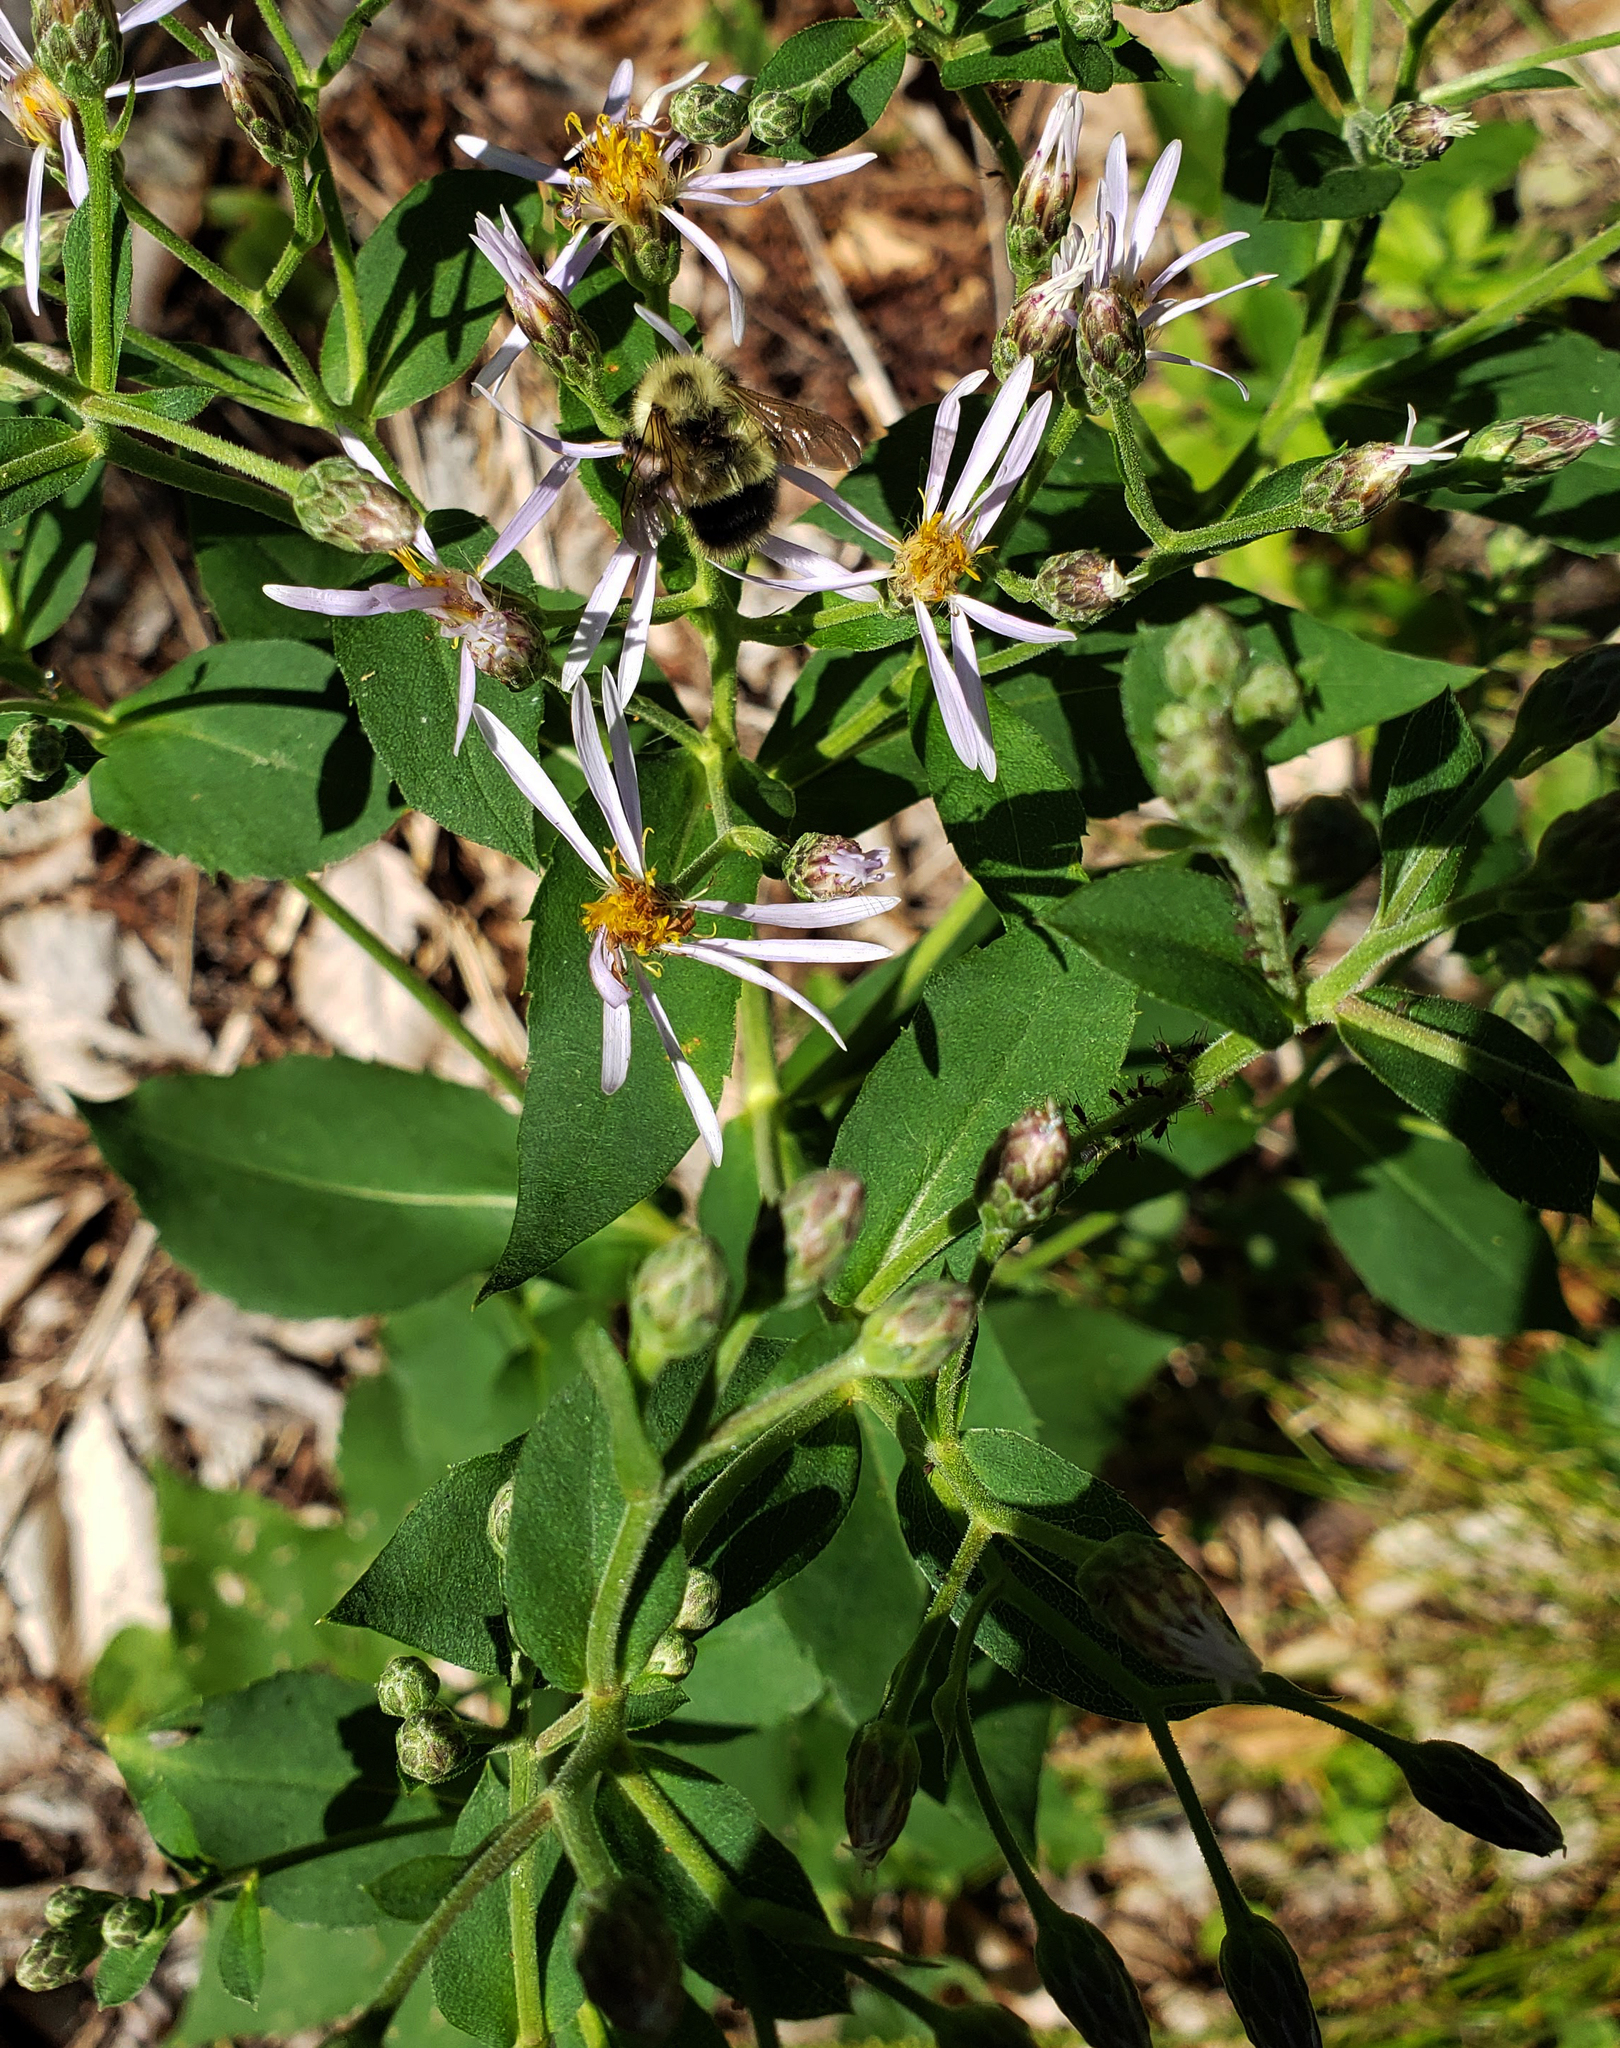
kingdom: Plantae
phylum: Tracheophyta
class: Magnoliopsida
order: Asterales
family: Asteraceae
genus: Eurybia
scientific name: Eurybia macrophylla
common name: Big-leaved aster
